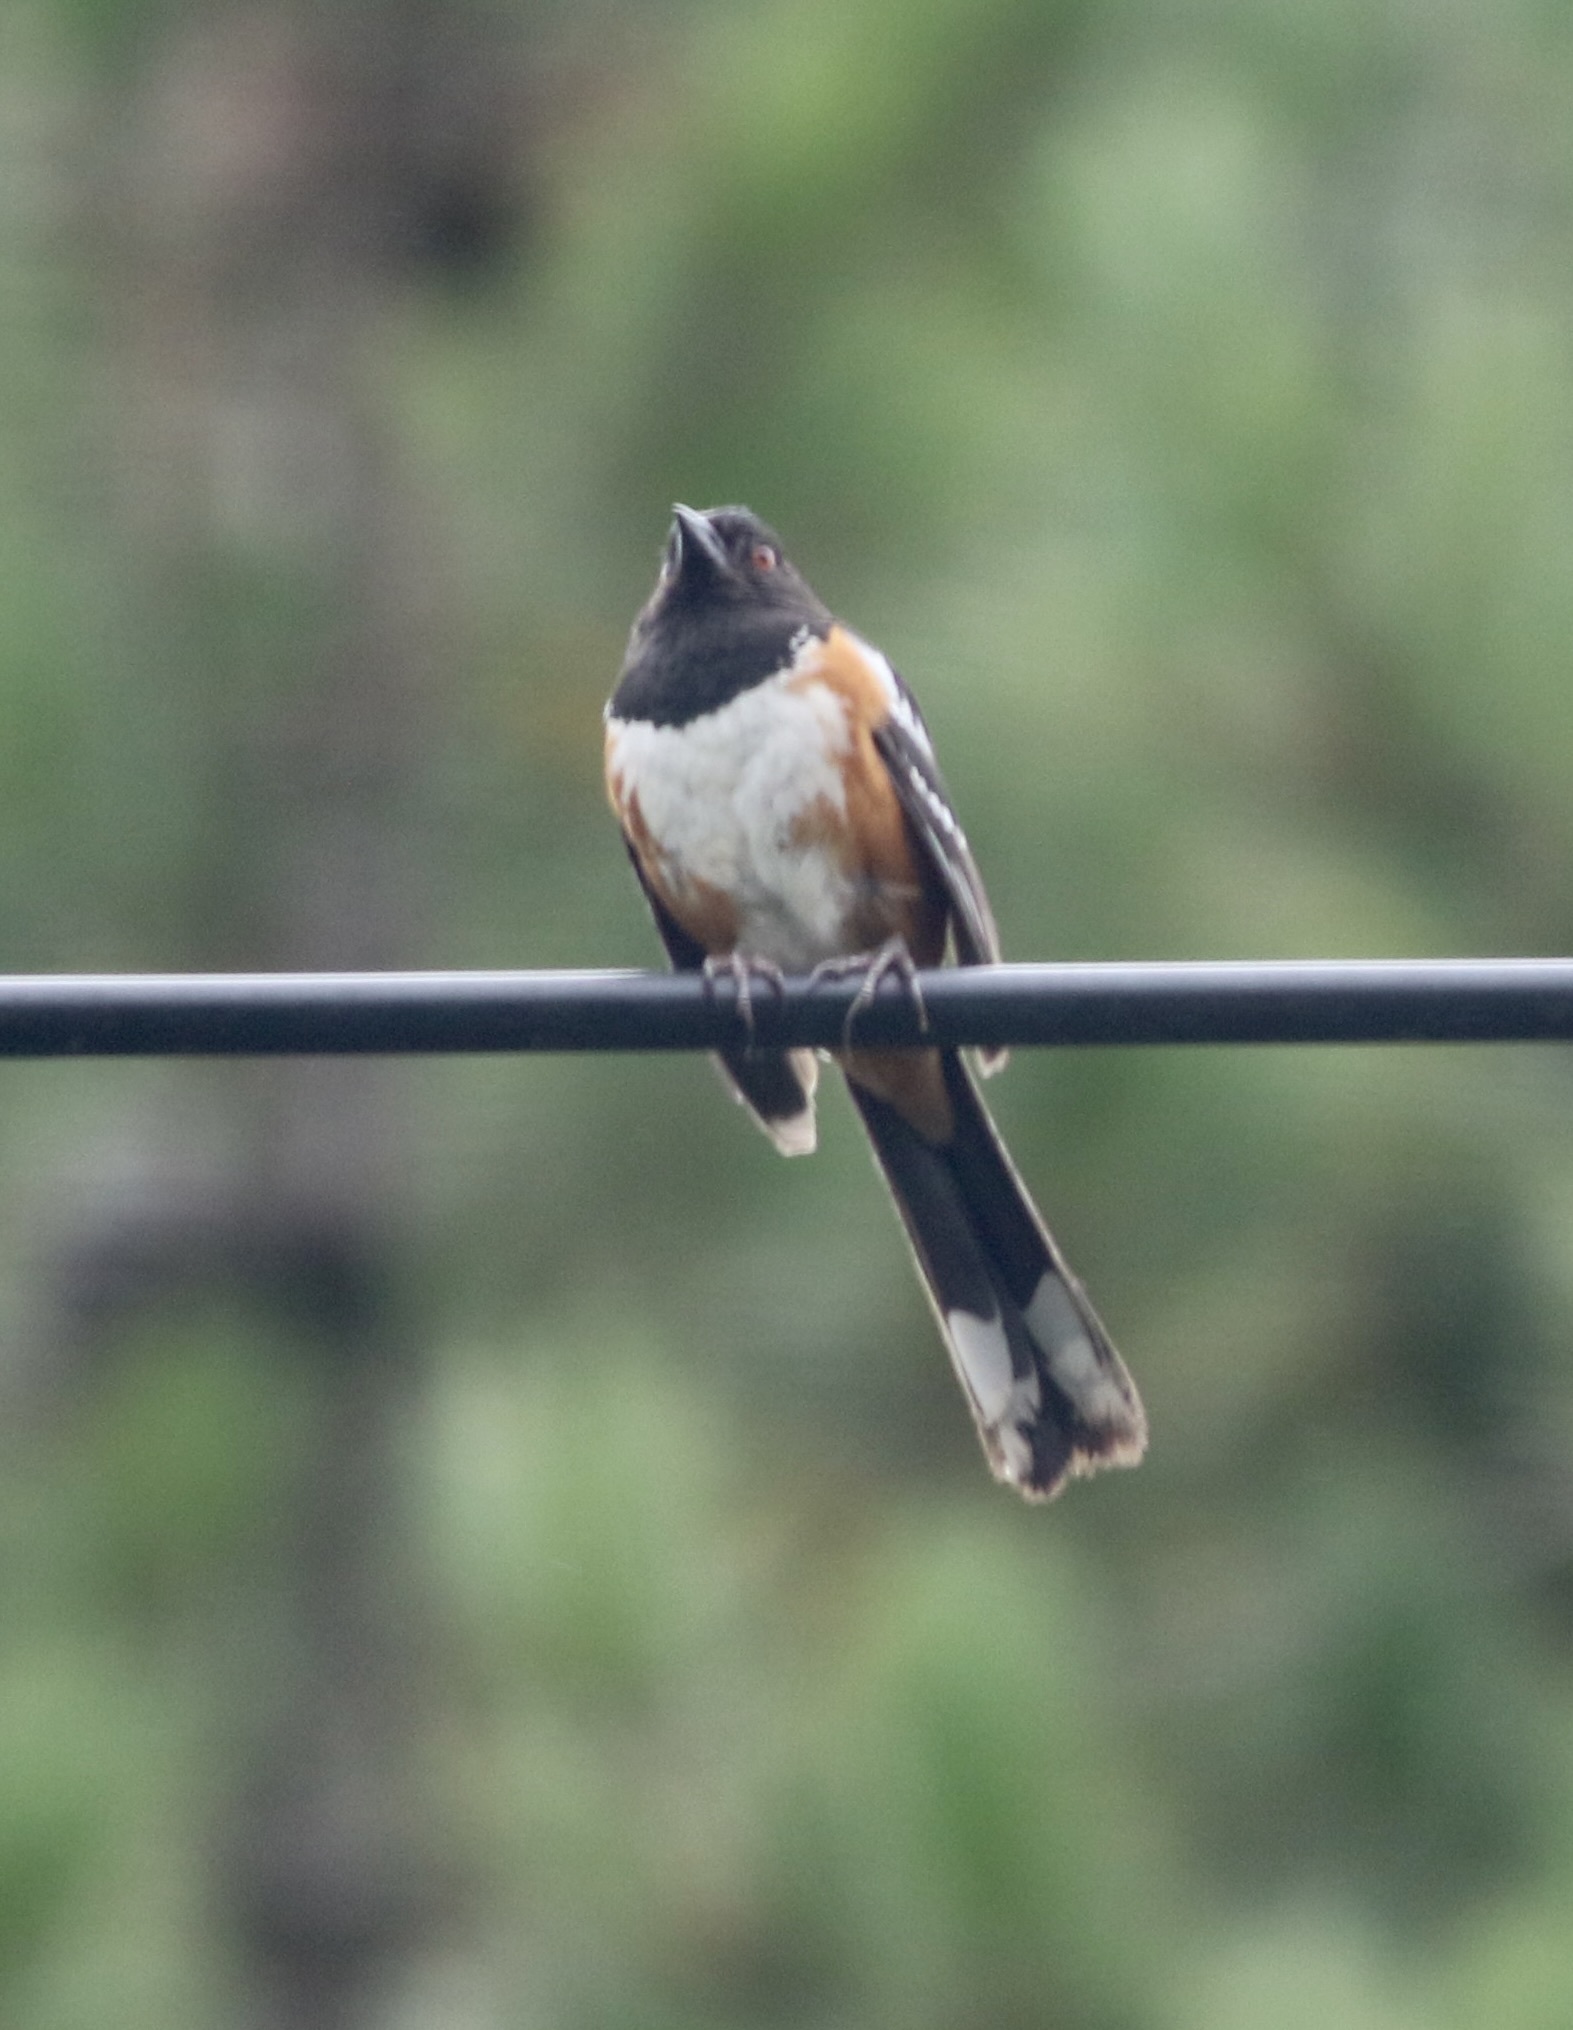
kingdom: Animalia
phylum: Chordata
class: Aves
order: Passeriformes
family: Passerellidae
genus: Pipilo
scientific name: Pipilo maculatus
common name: Spotted towhee
